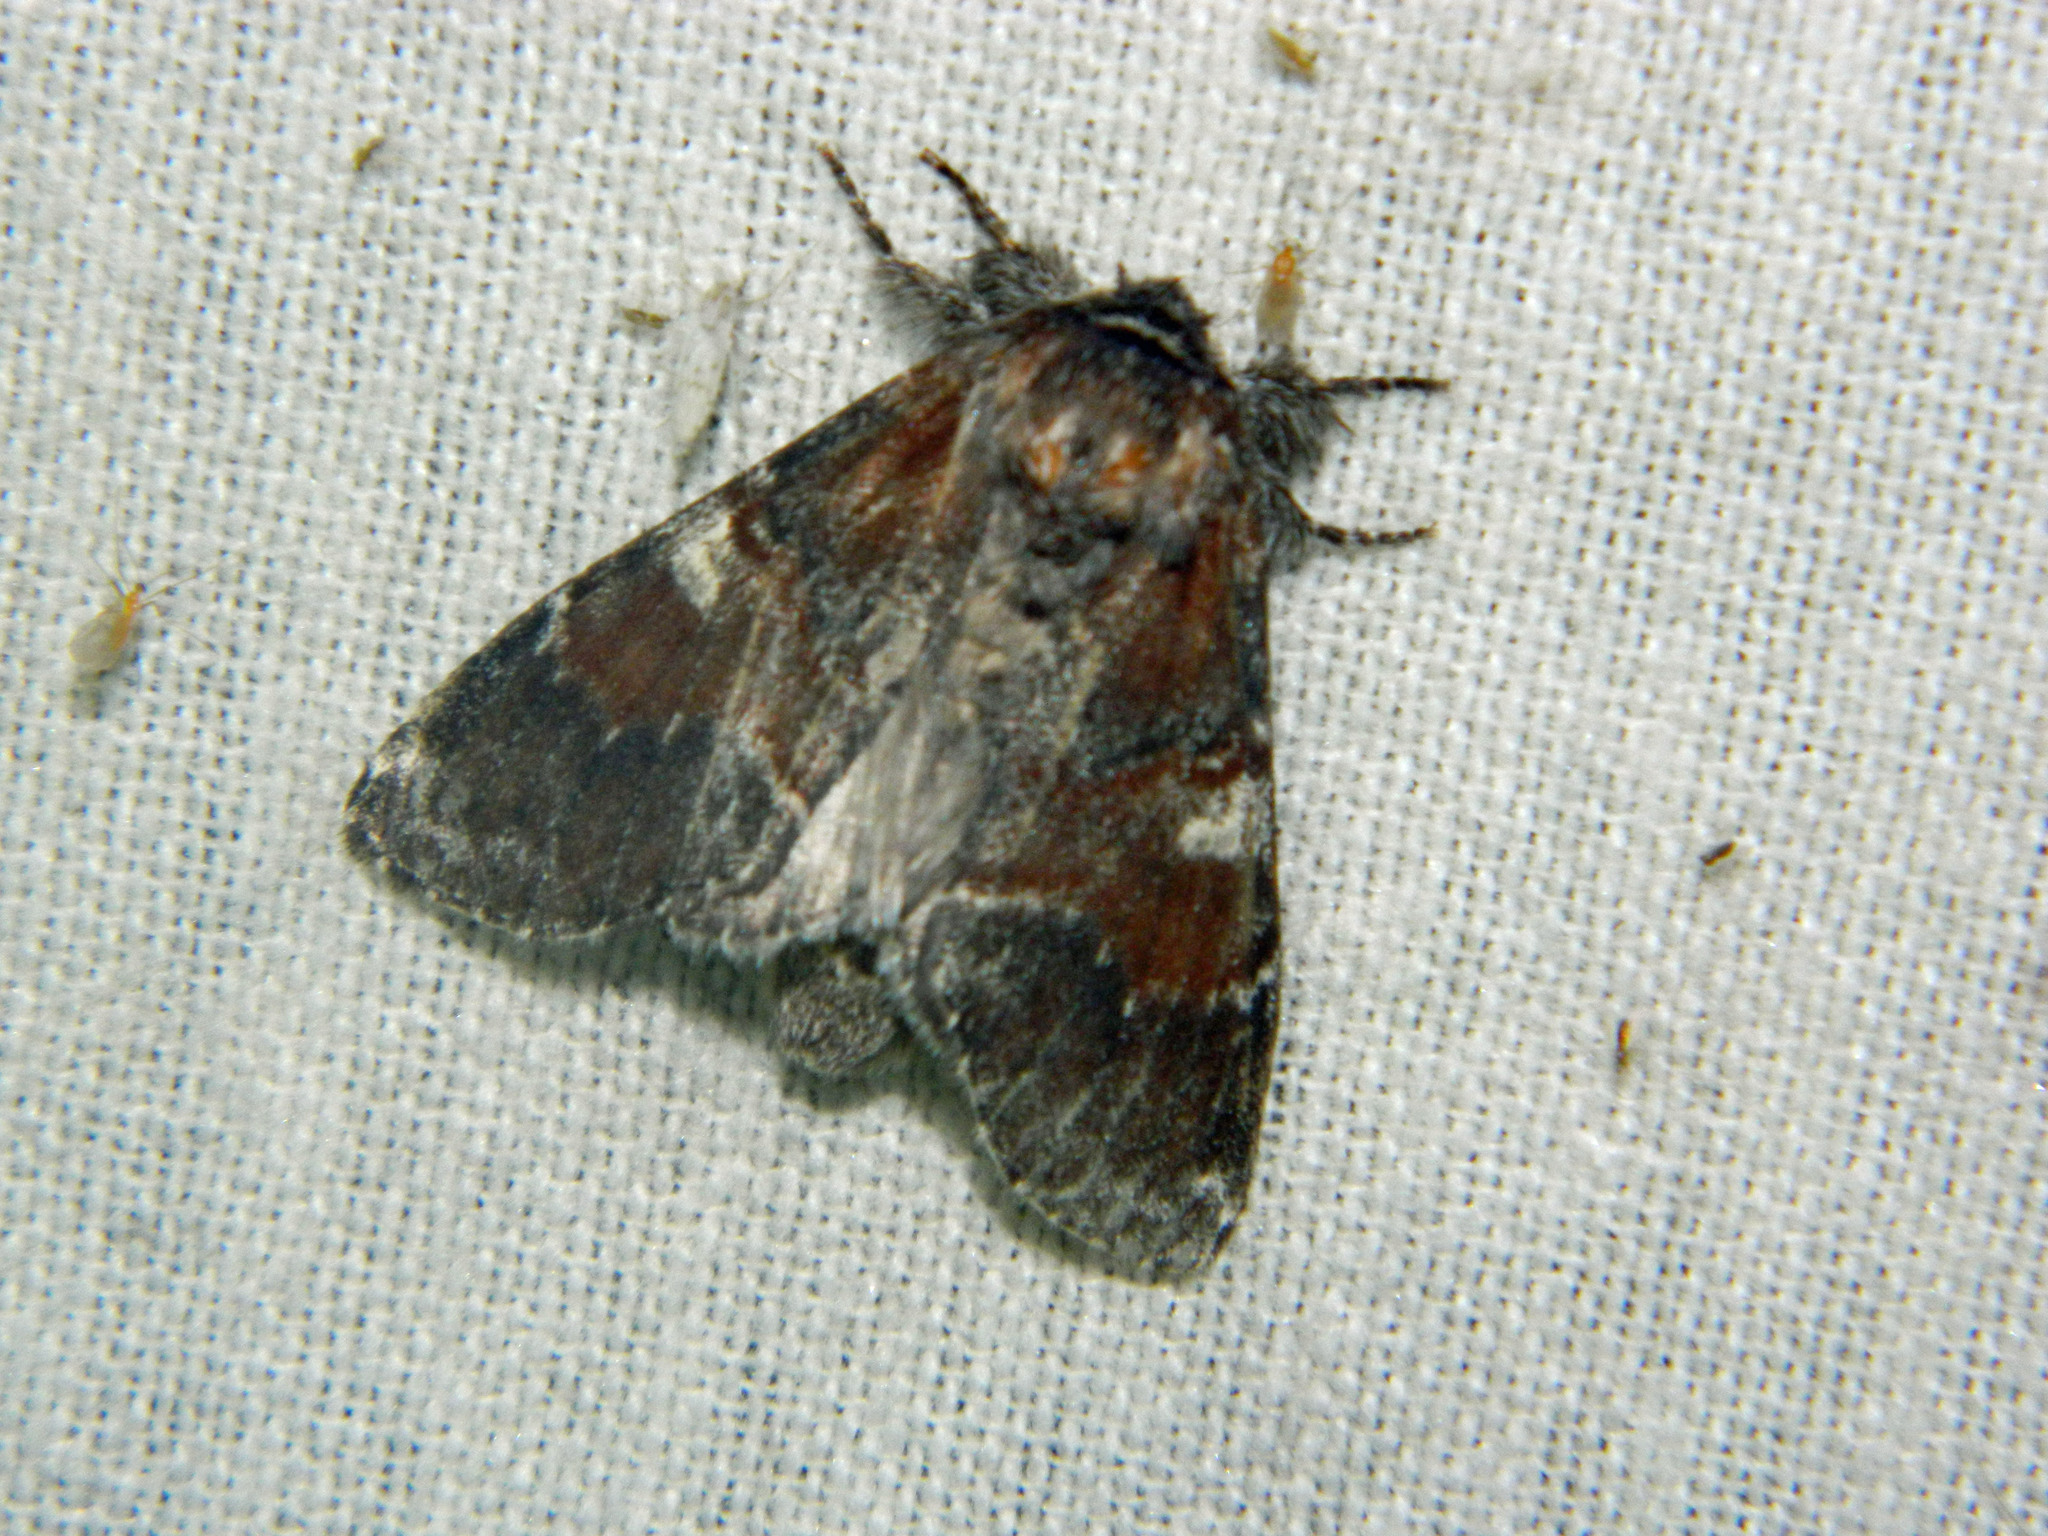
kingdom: Animalia
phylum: Arthropoda
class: Insecta
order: Lepidoptera
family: Notodontidae
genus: Peridea
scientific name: Peridea ferruginea
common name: Chocolate prominent
